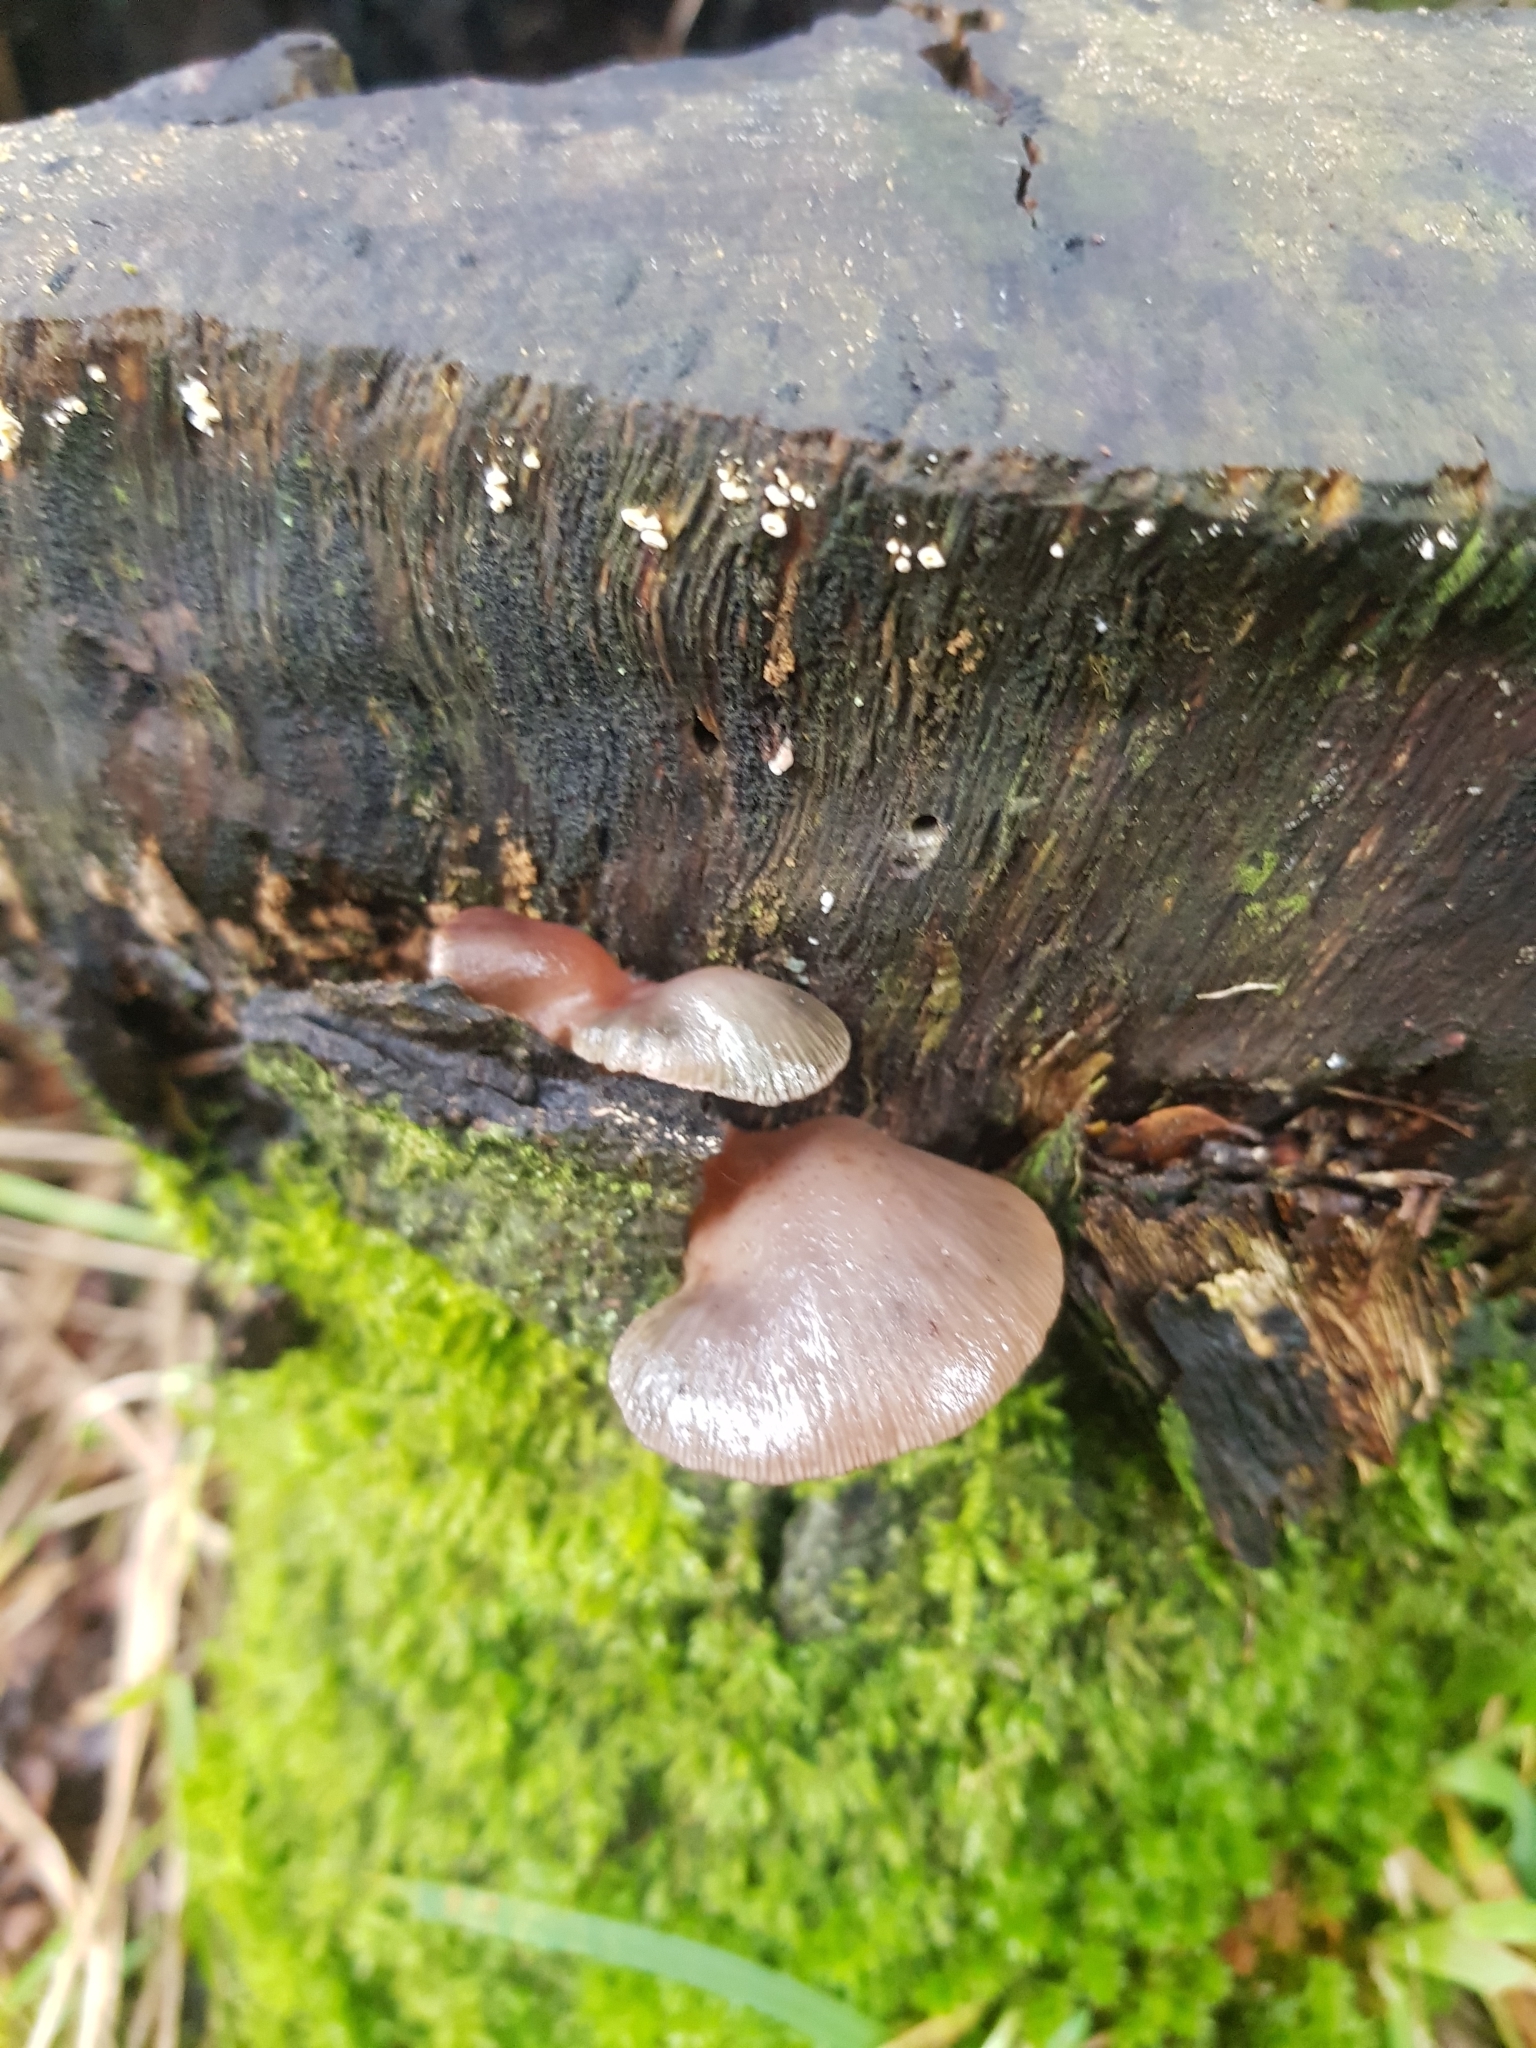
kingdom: Fungi
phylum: Basidiomycota
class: Agaricomycetes
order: Agaricales
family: Mycenaceae
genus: Panellus
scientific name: Panellus longinquus
